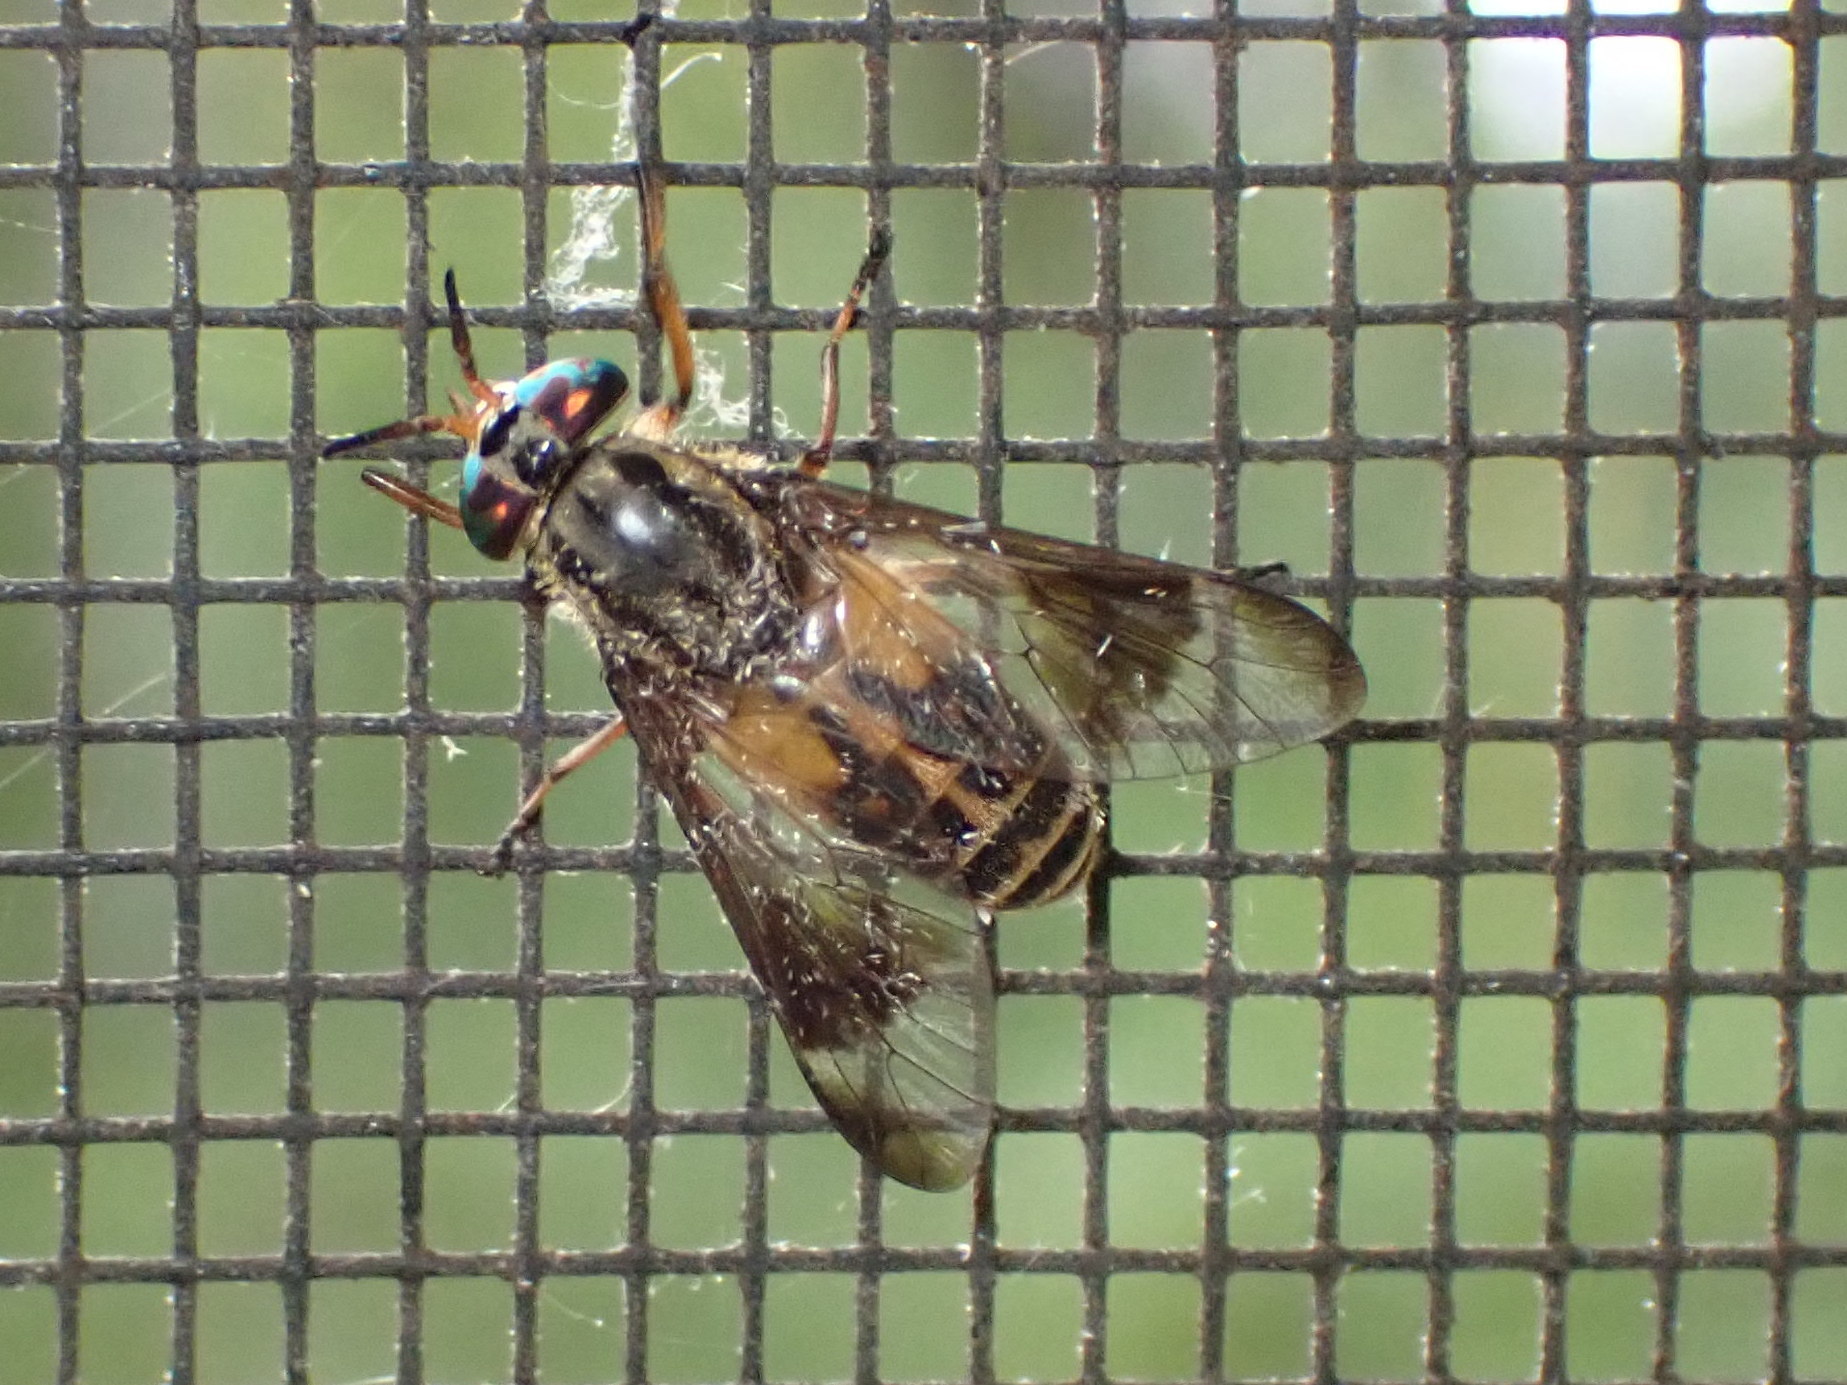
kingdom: Animalia
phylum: Arthropoda
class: Insecta
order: Diptera
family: Tabanidae
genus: Chrysops
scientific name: Chrysops lateralis
